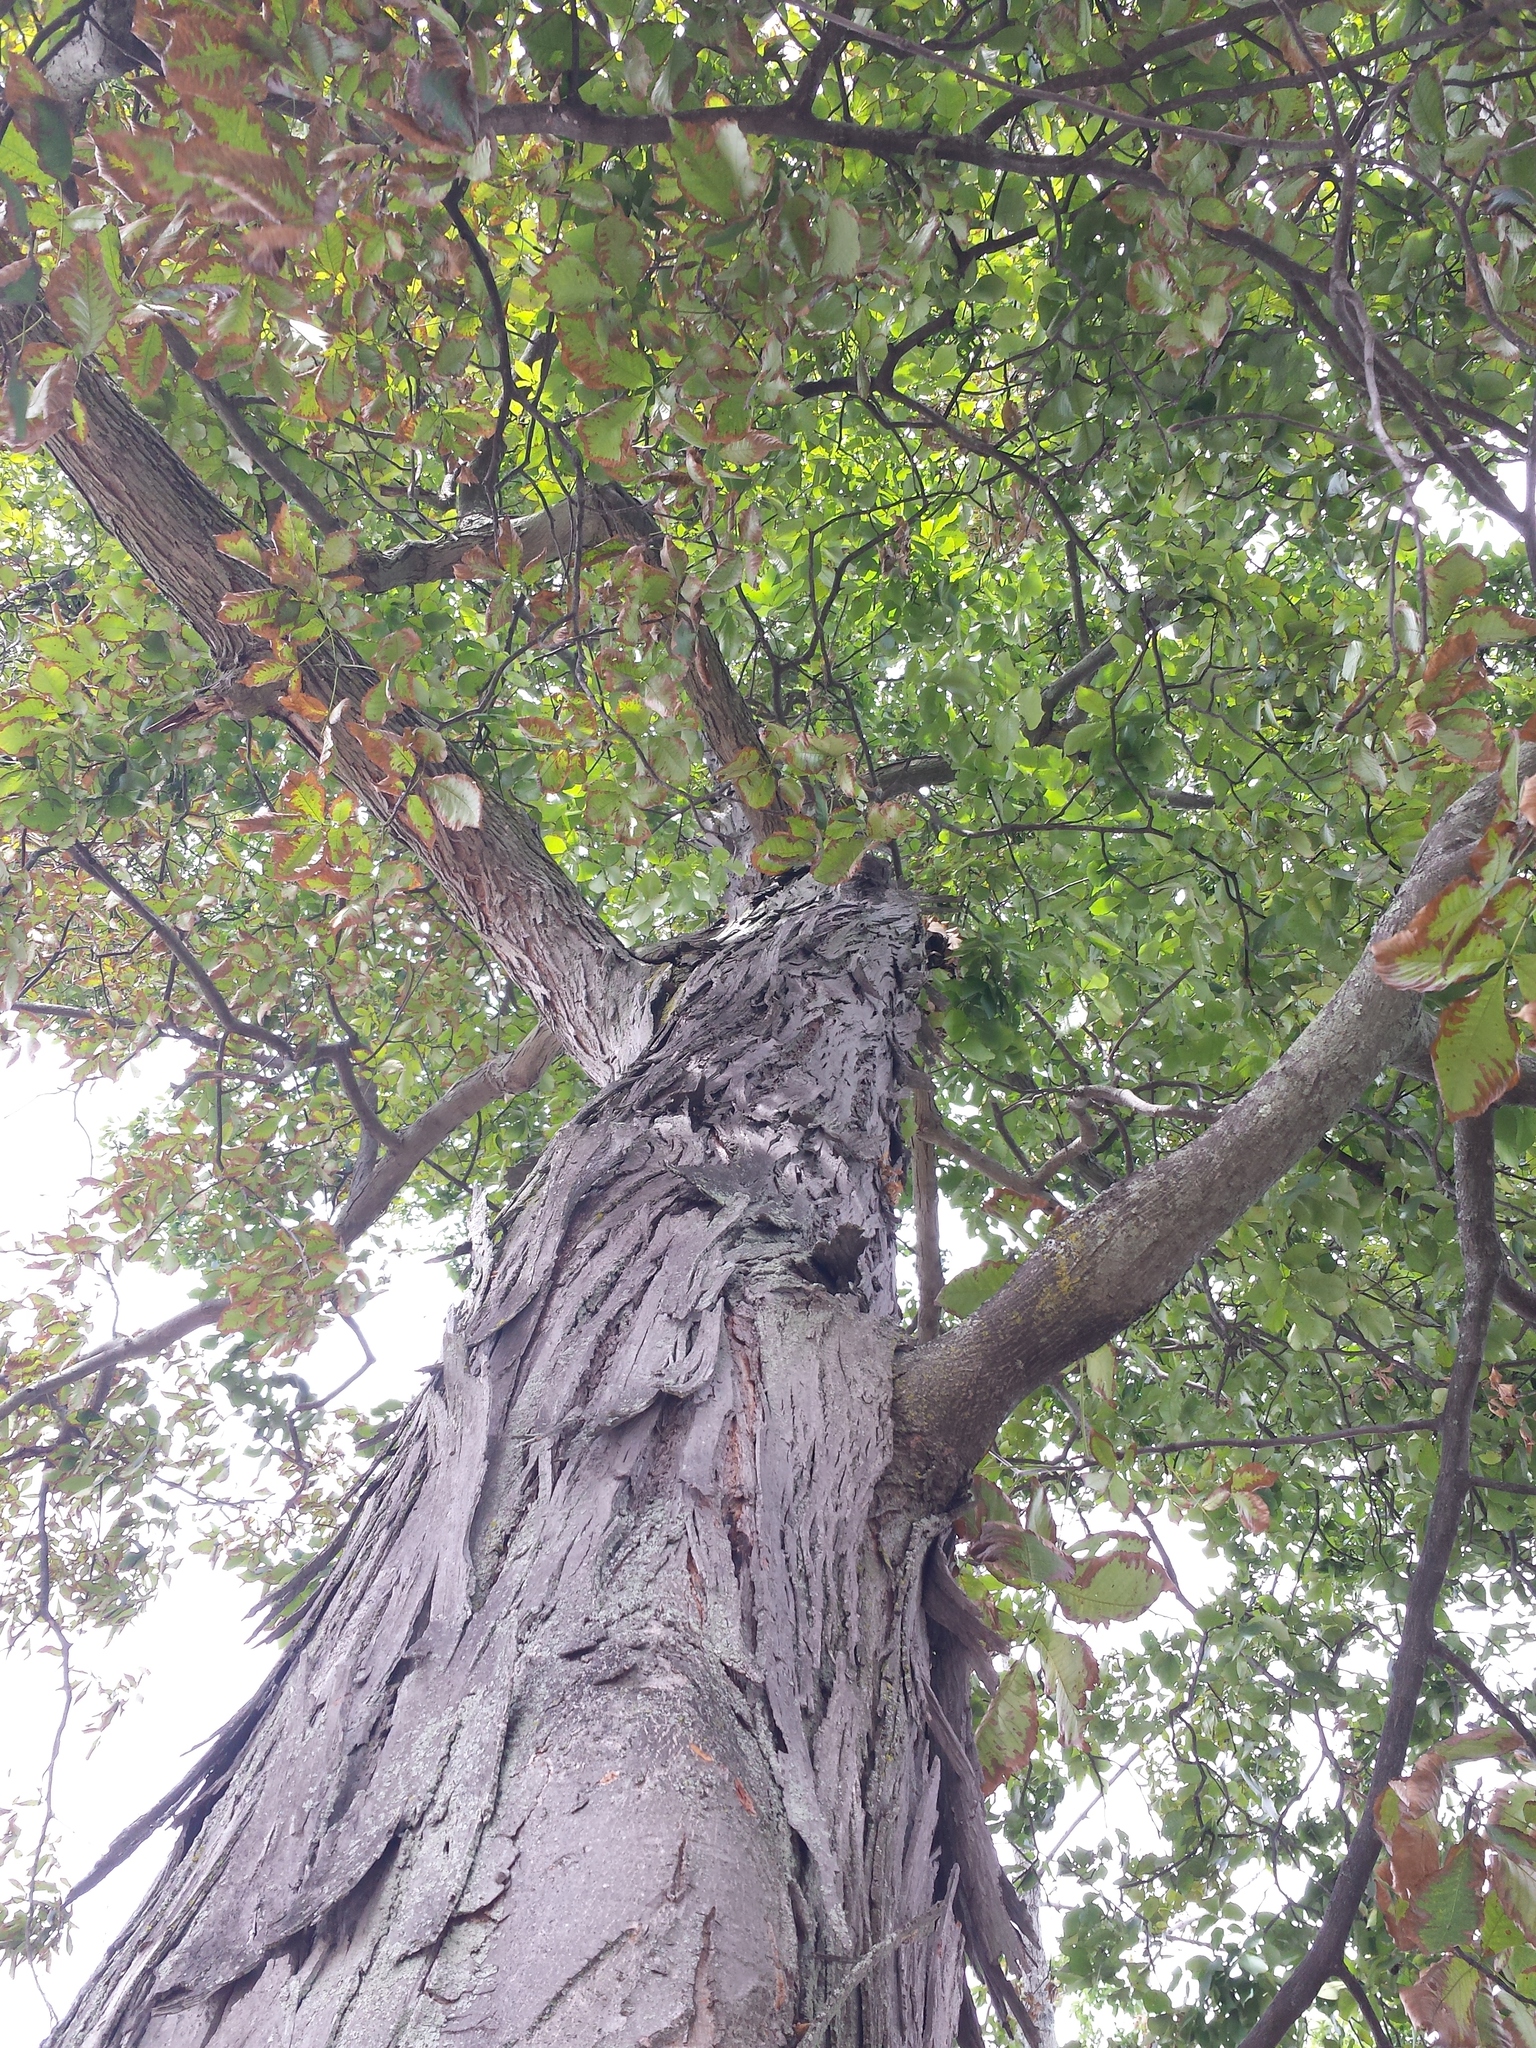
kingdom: Plantae
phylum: Tracheophyta
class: Magnoliopsida
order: Fagales
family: Juglandaceae
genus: Carya
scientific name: Carya ovata
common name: Shagbark hickory
